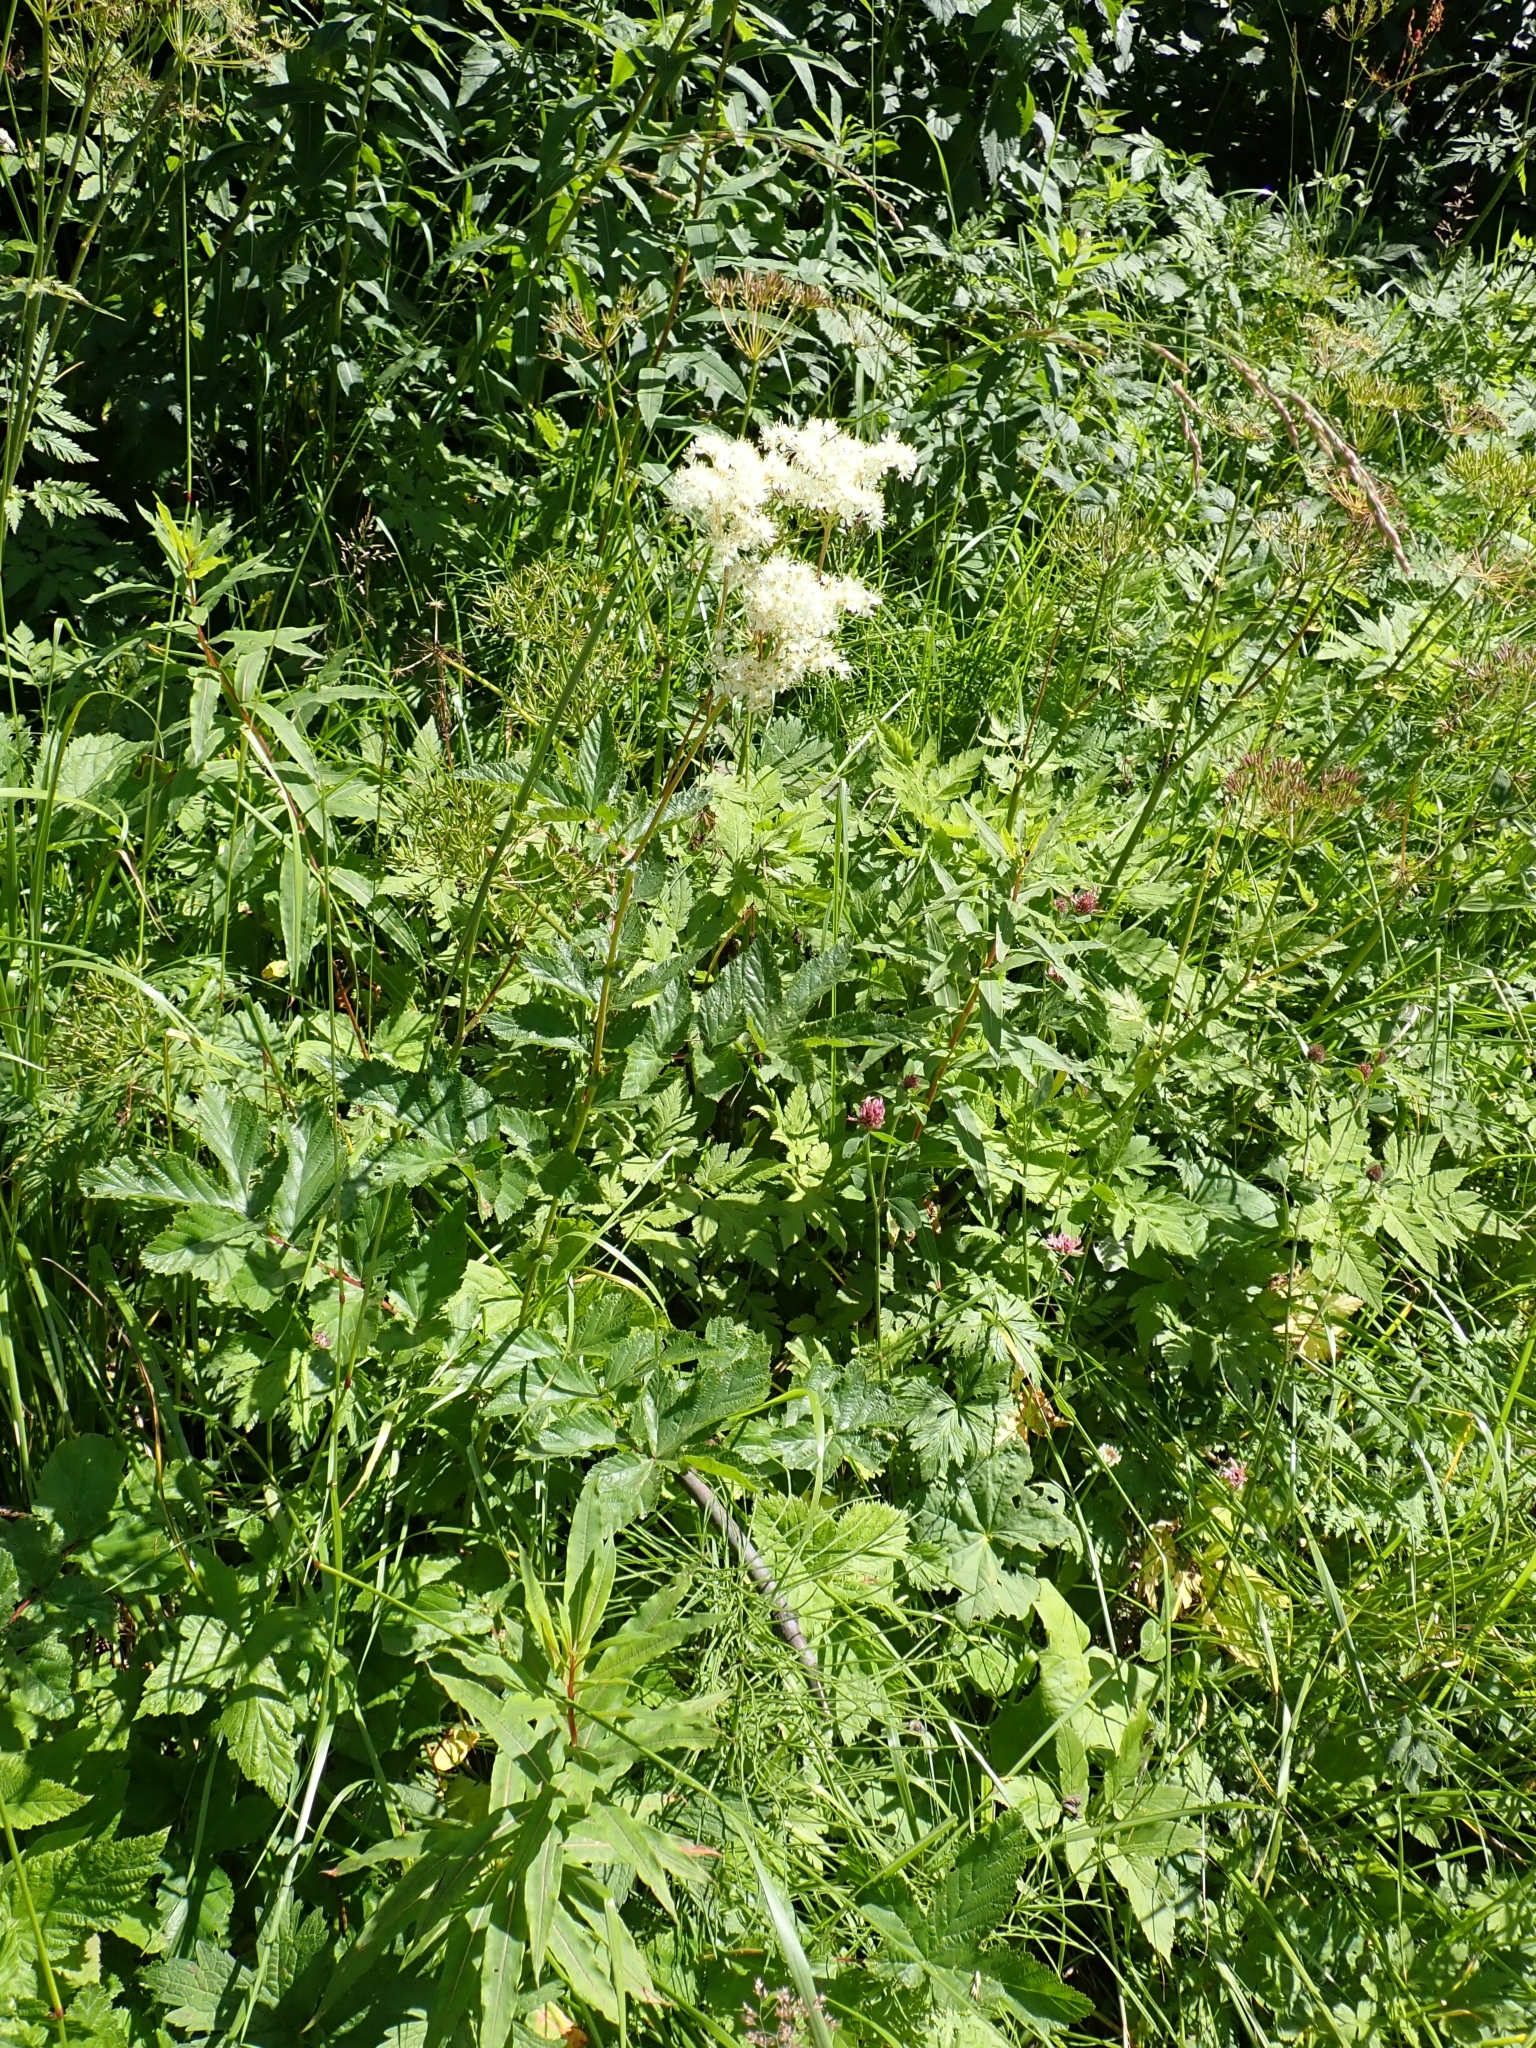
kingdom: Plantae
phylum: Tracheophyta
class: Magnoliopsida
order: Rosales
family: Rosaceae
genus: Filipendula
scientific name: Filipendula ulmaria
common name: Meadowsweet
